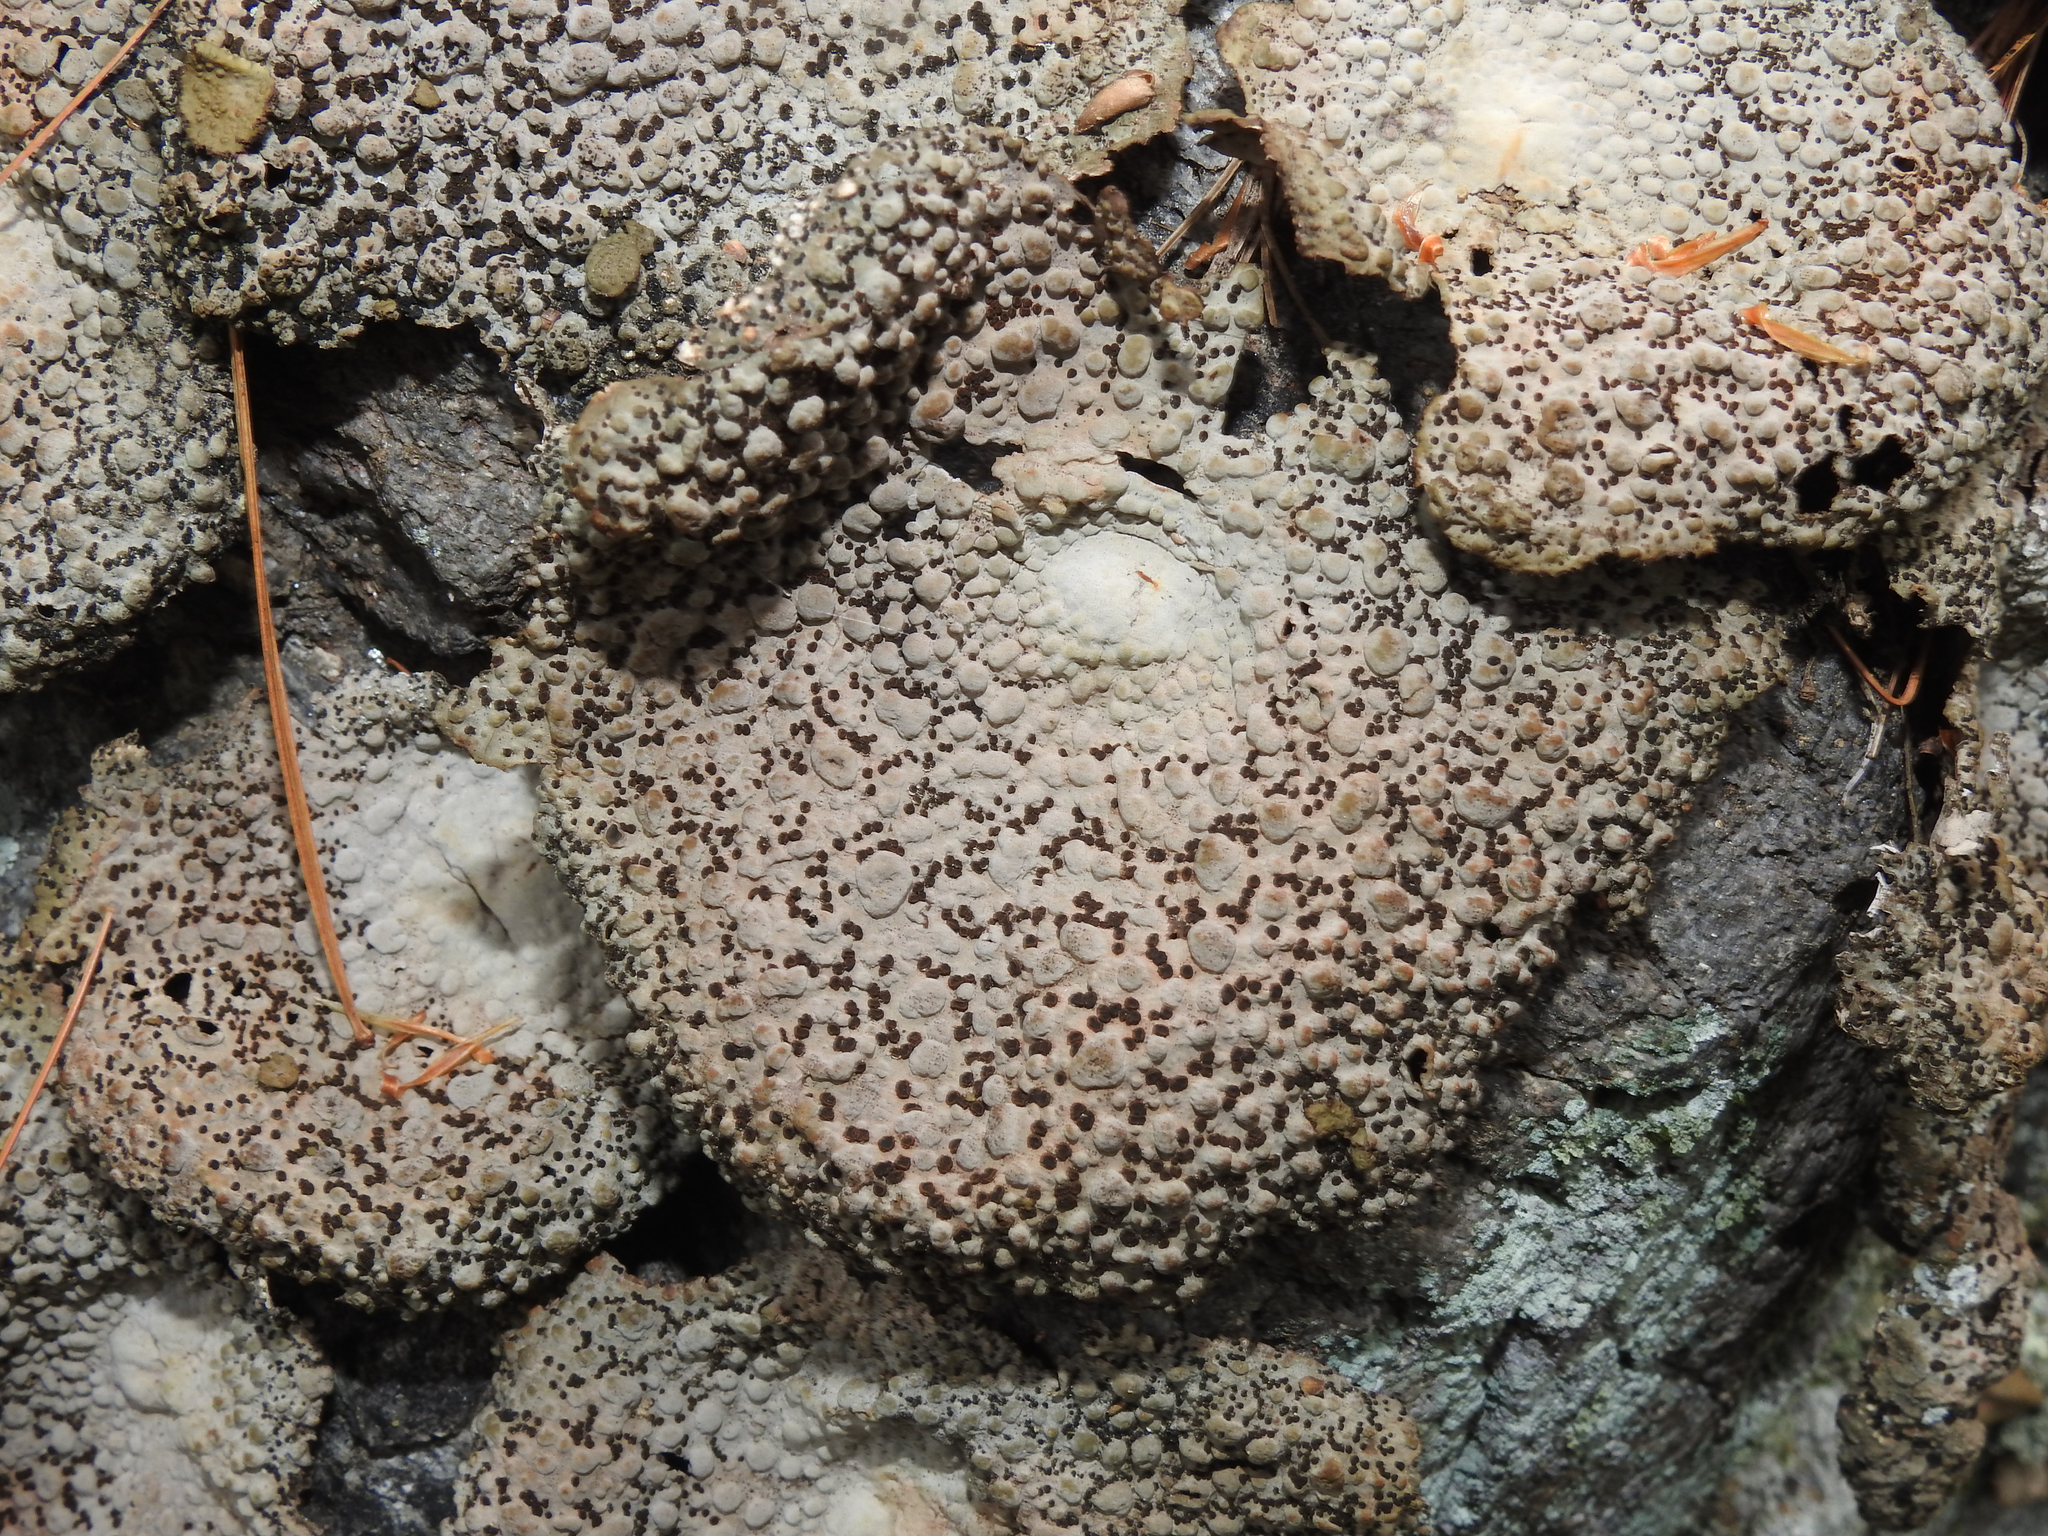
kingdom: Fungi
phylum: Ascomycota
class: Lecanoromycetes
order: Umbilicariales
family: Umbilicariaceae
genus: Lasallia
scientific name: Lasallia papulosa
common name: Common toadskin lichen
